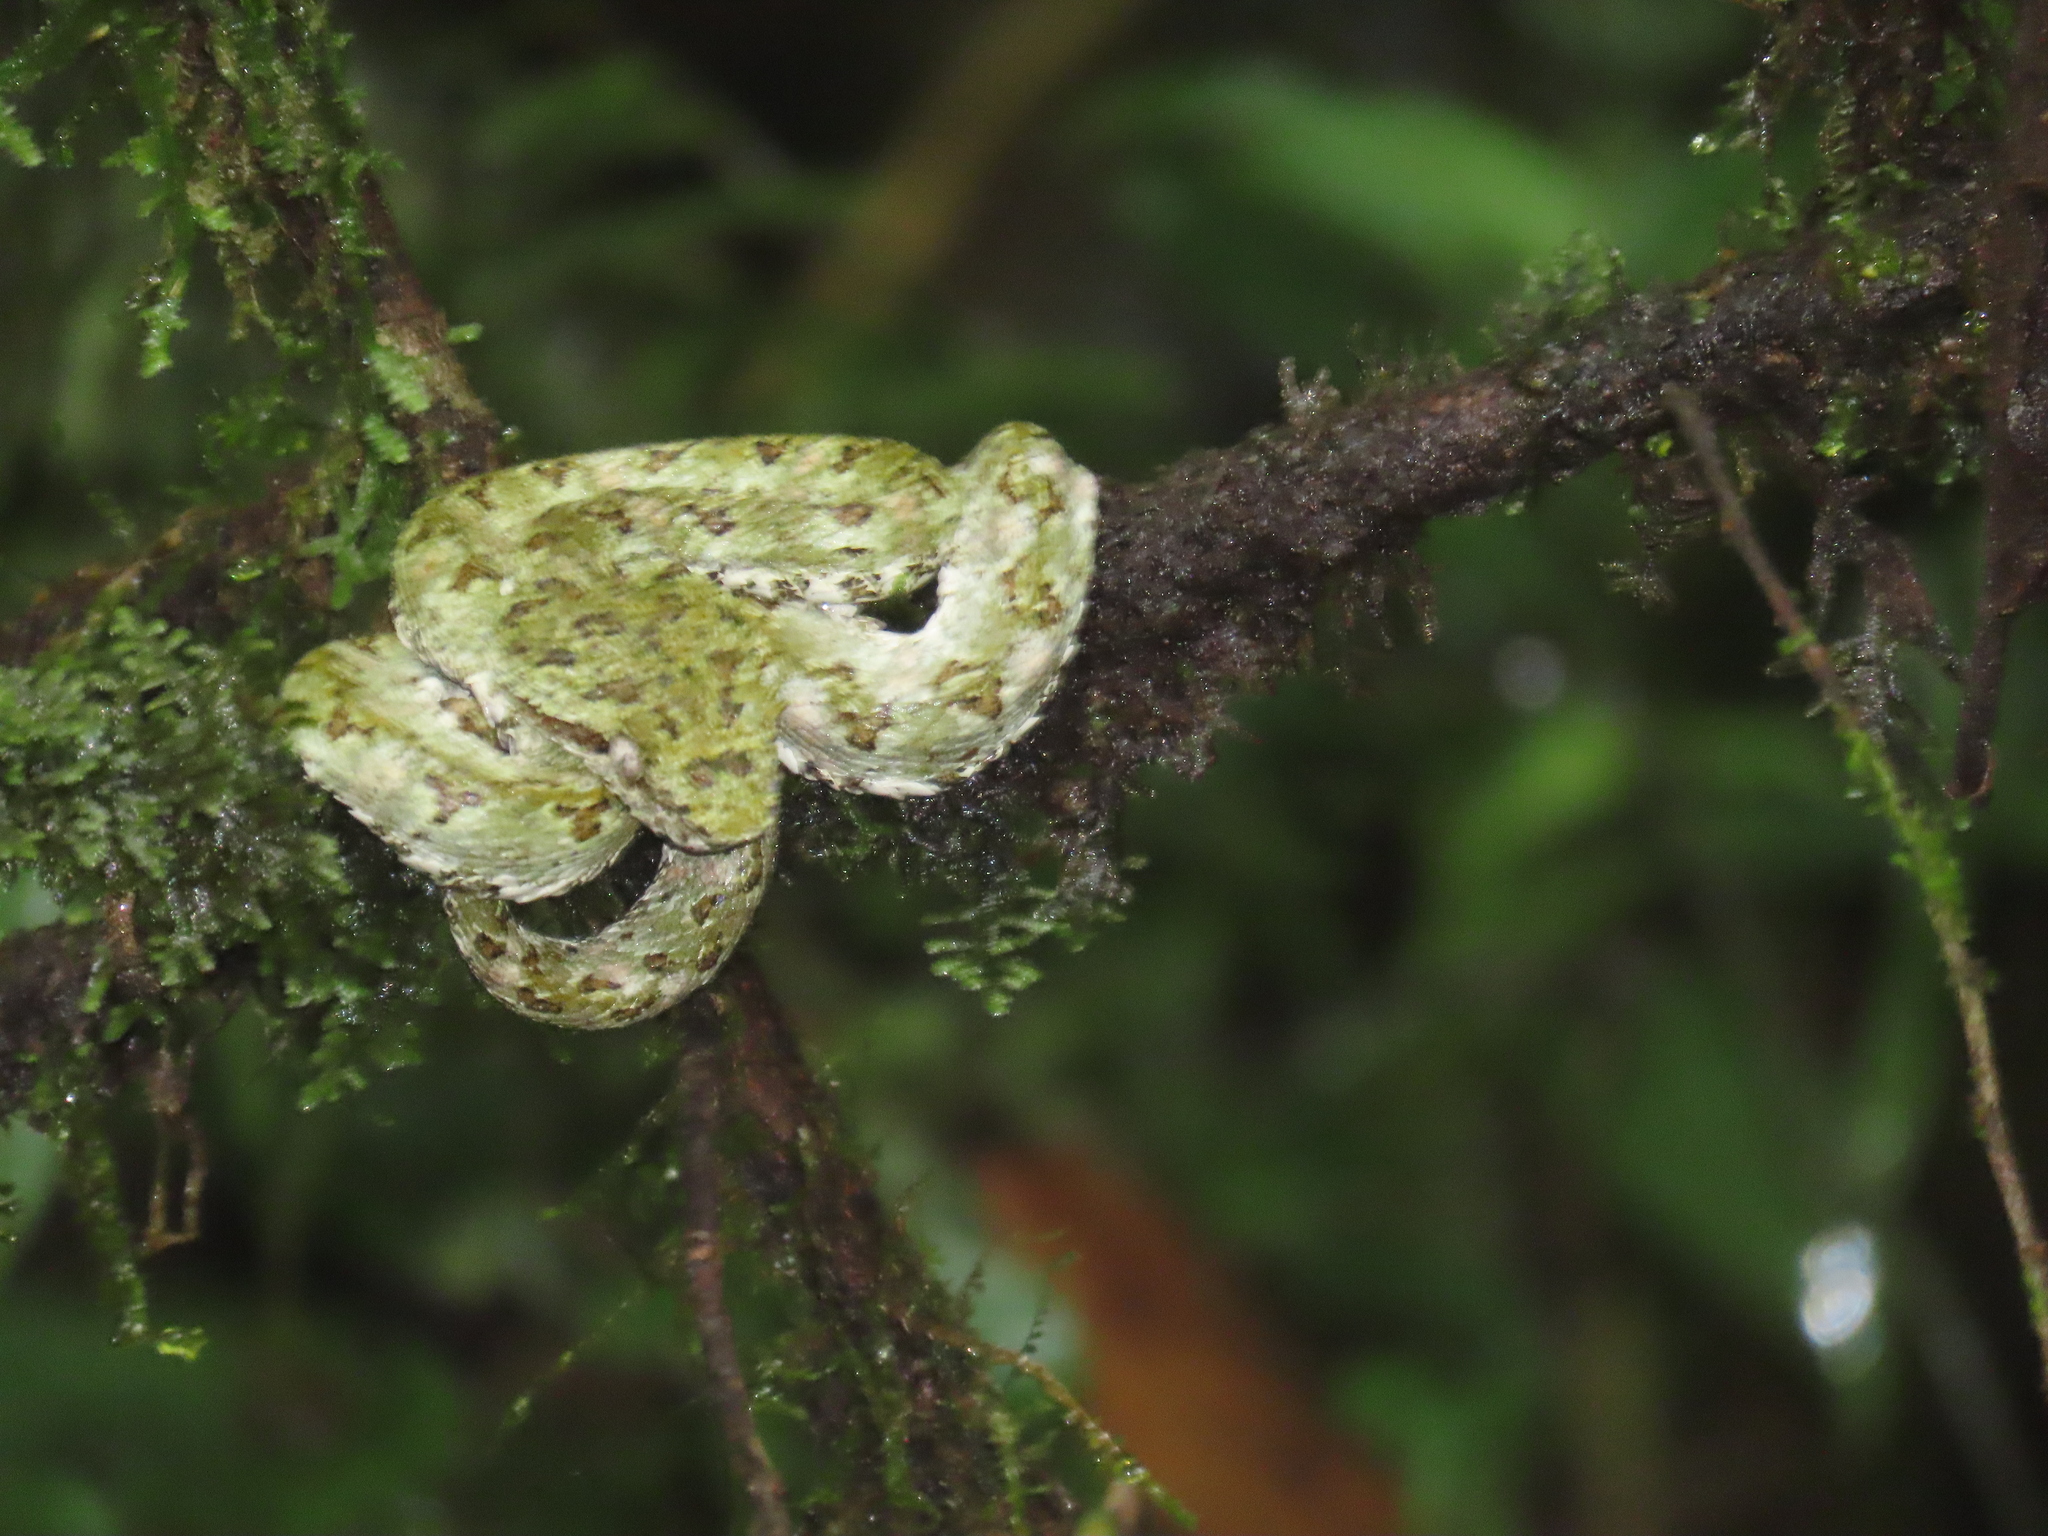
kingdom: Animalia
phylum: Chordata
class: Squamata
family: Viperidae
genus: Bothriechis
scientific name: Bothriechis schlegelii
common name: Eyelash viper
